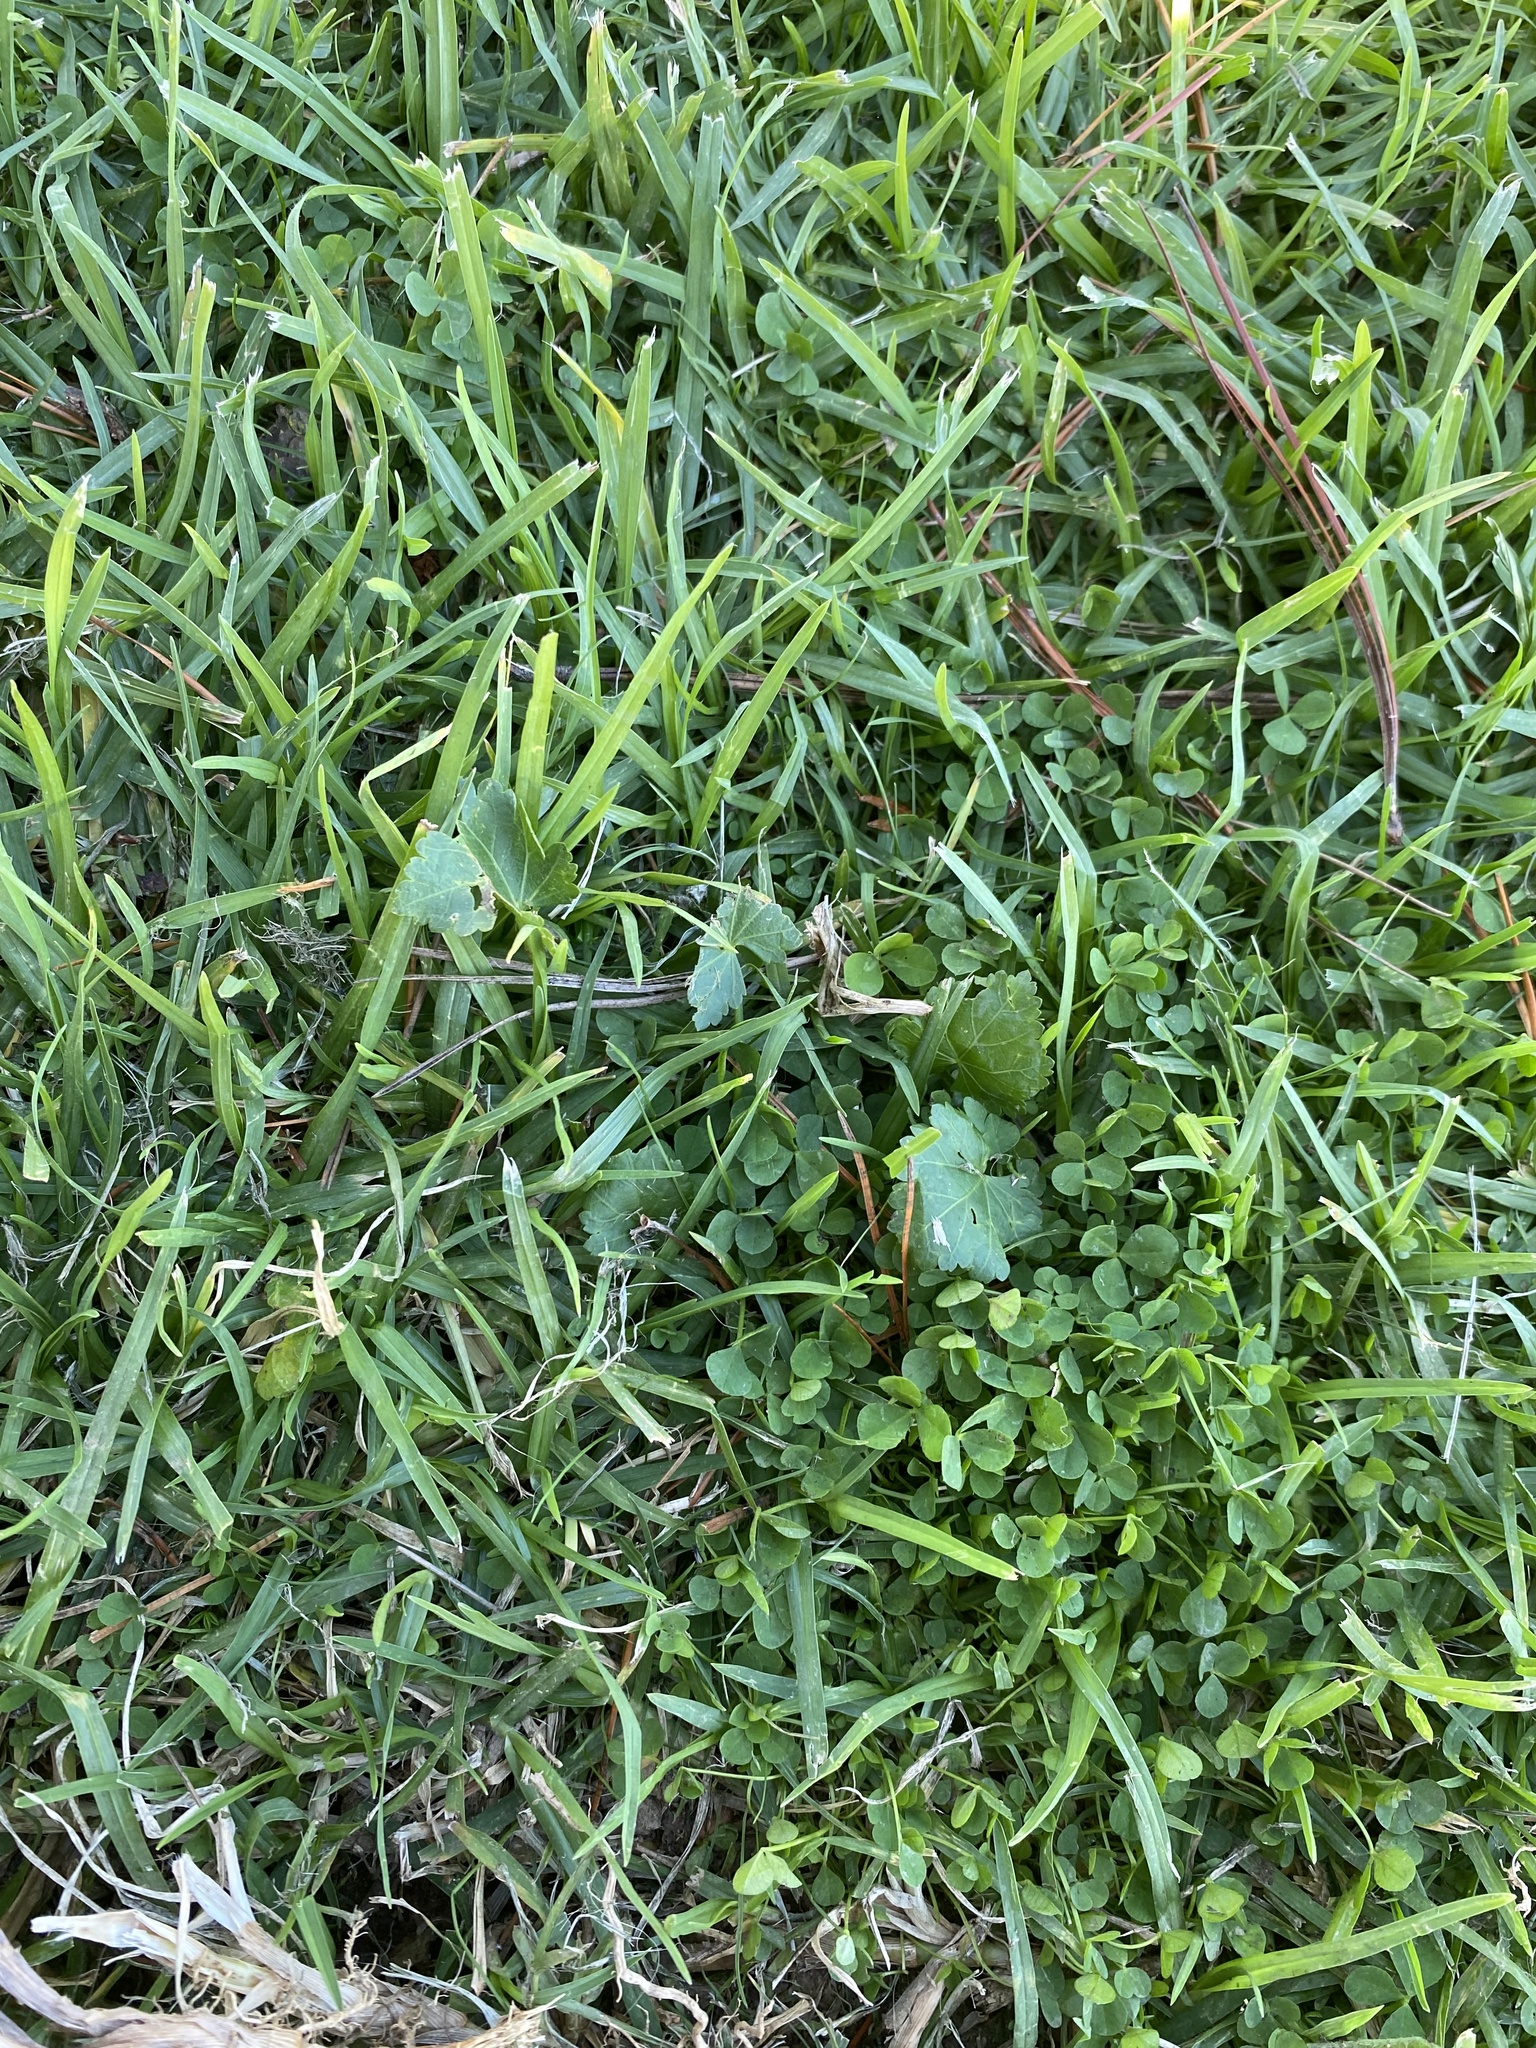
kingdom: Plantae
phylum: Tracheophyta
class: Magnoliopsida
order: Malvales
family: Malvaceae
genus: Modiola
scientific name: Modiola caroliniana
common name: Carolina bristlemallow
